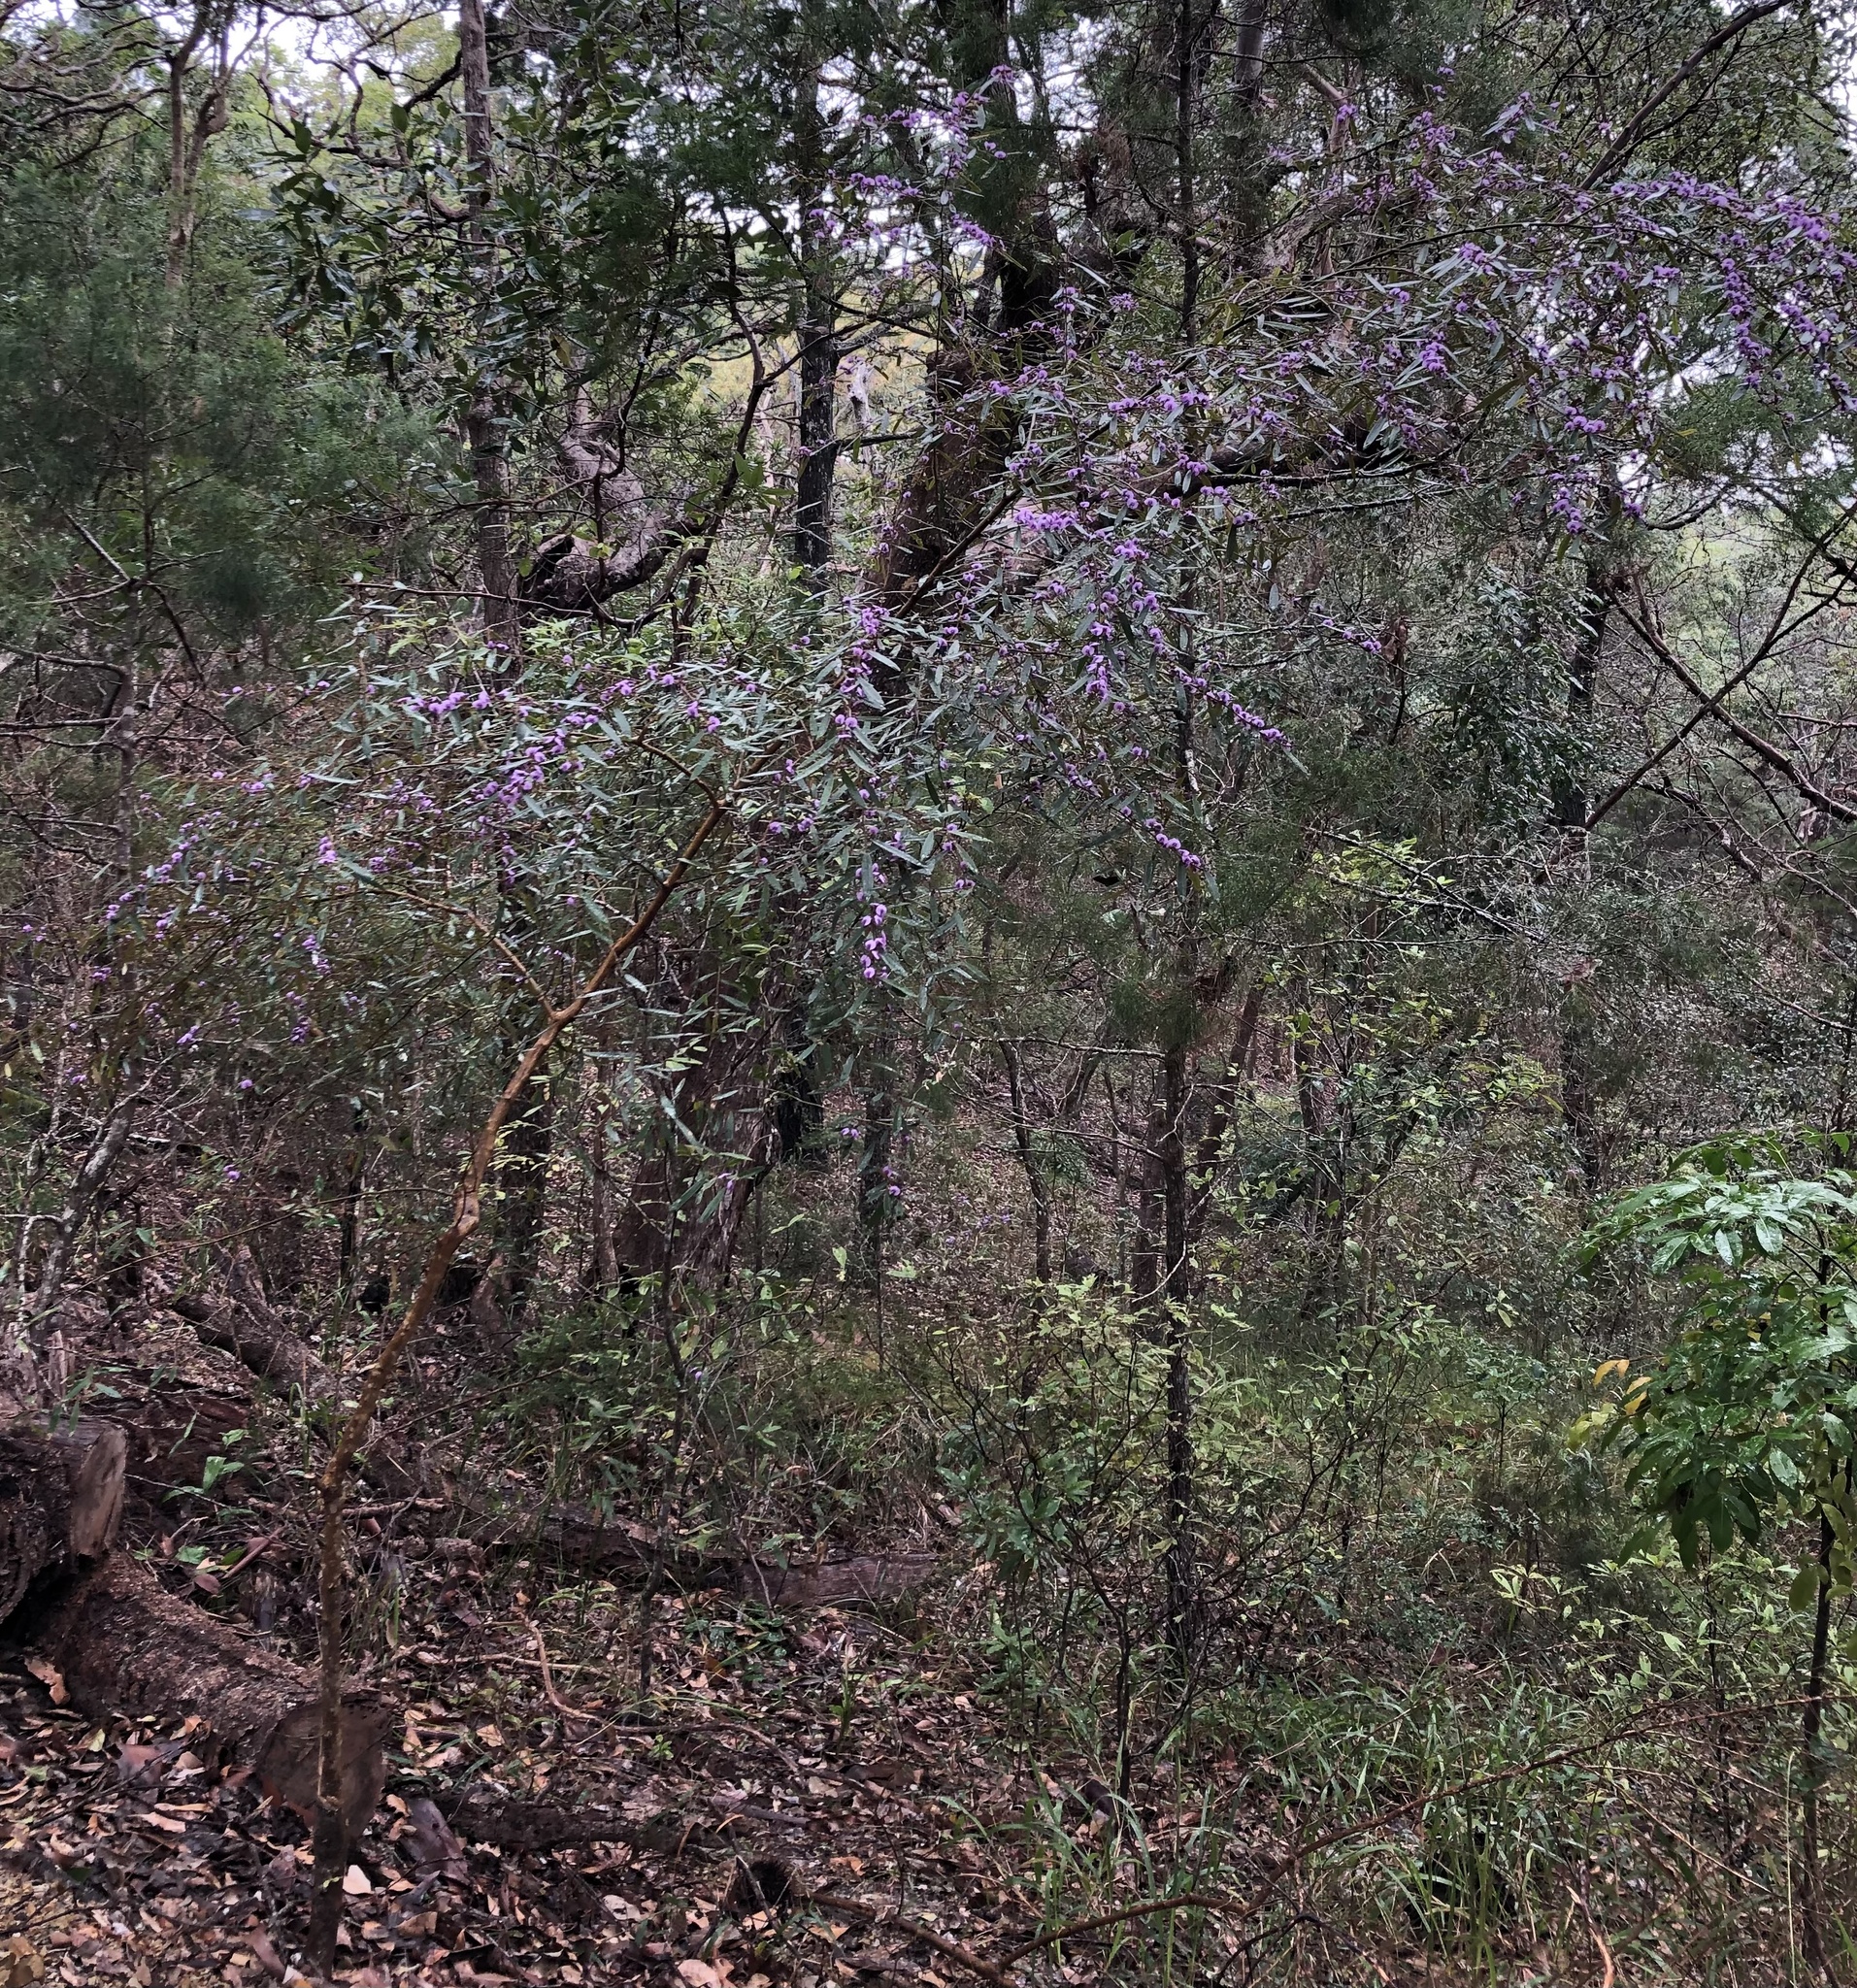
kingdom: Plantae
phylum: Tracheophyta
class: Magnoliopsida
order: Fabales
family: Fabaceae
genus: Hovea
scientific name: Hovea acutifolia
